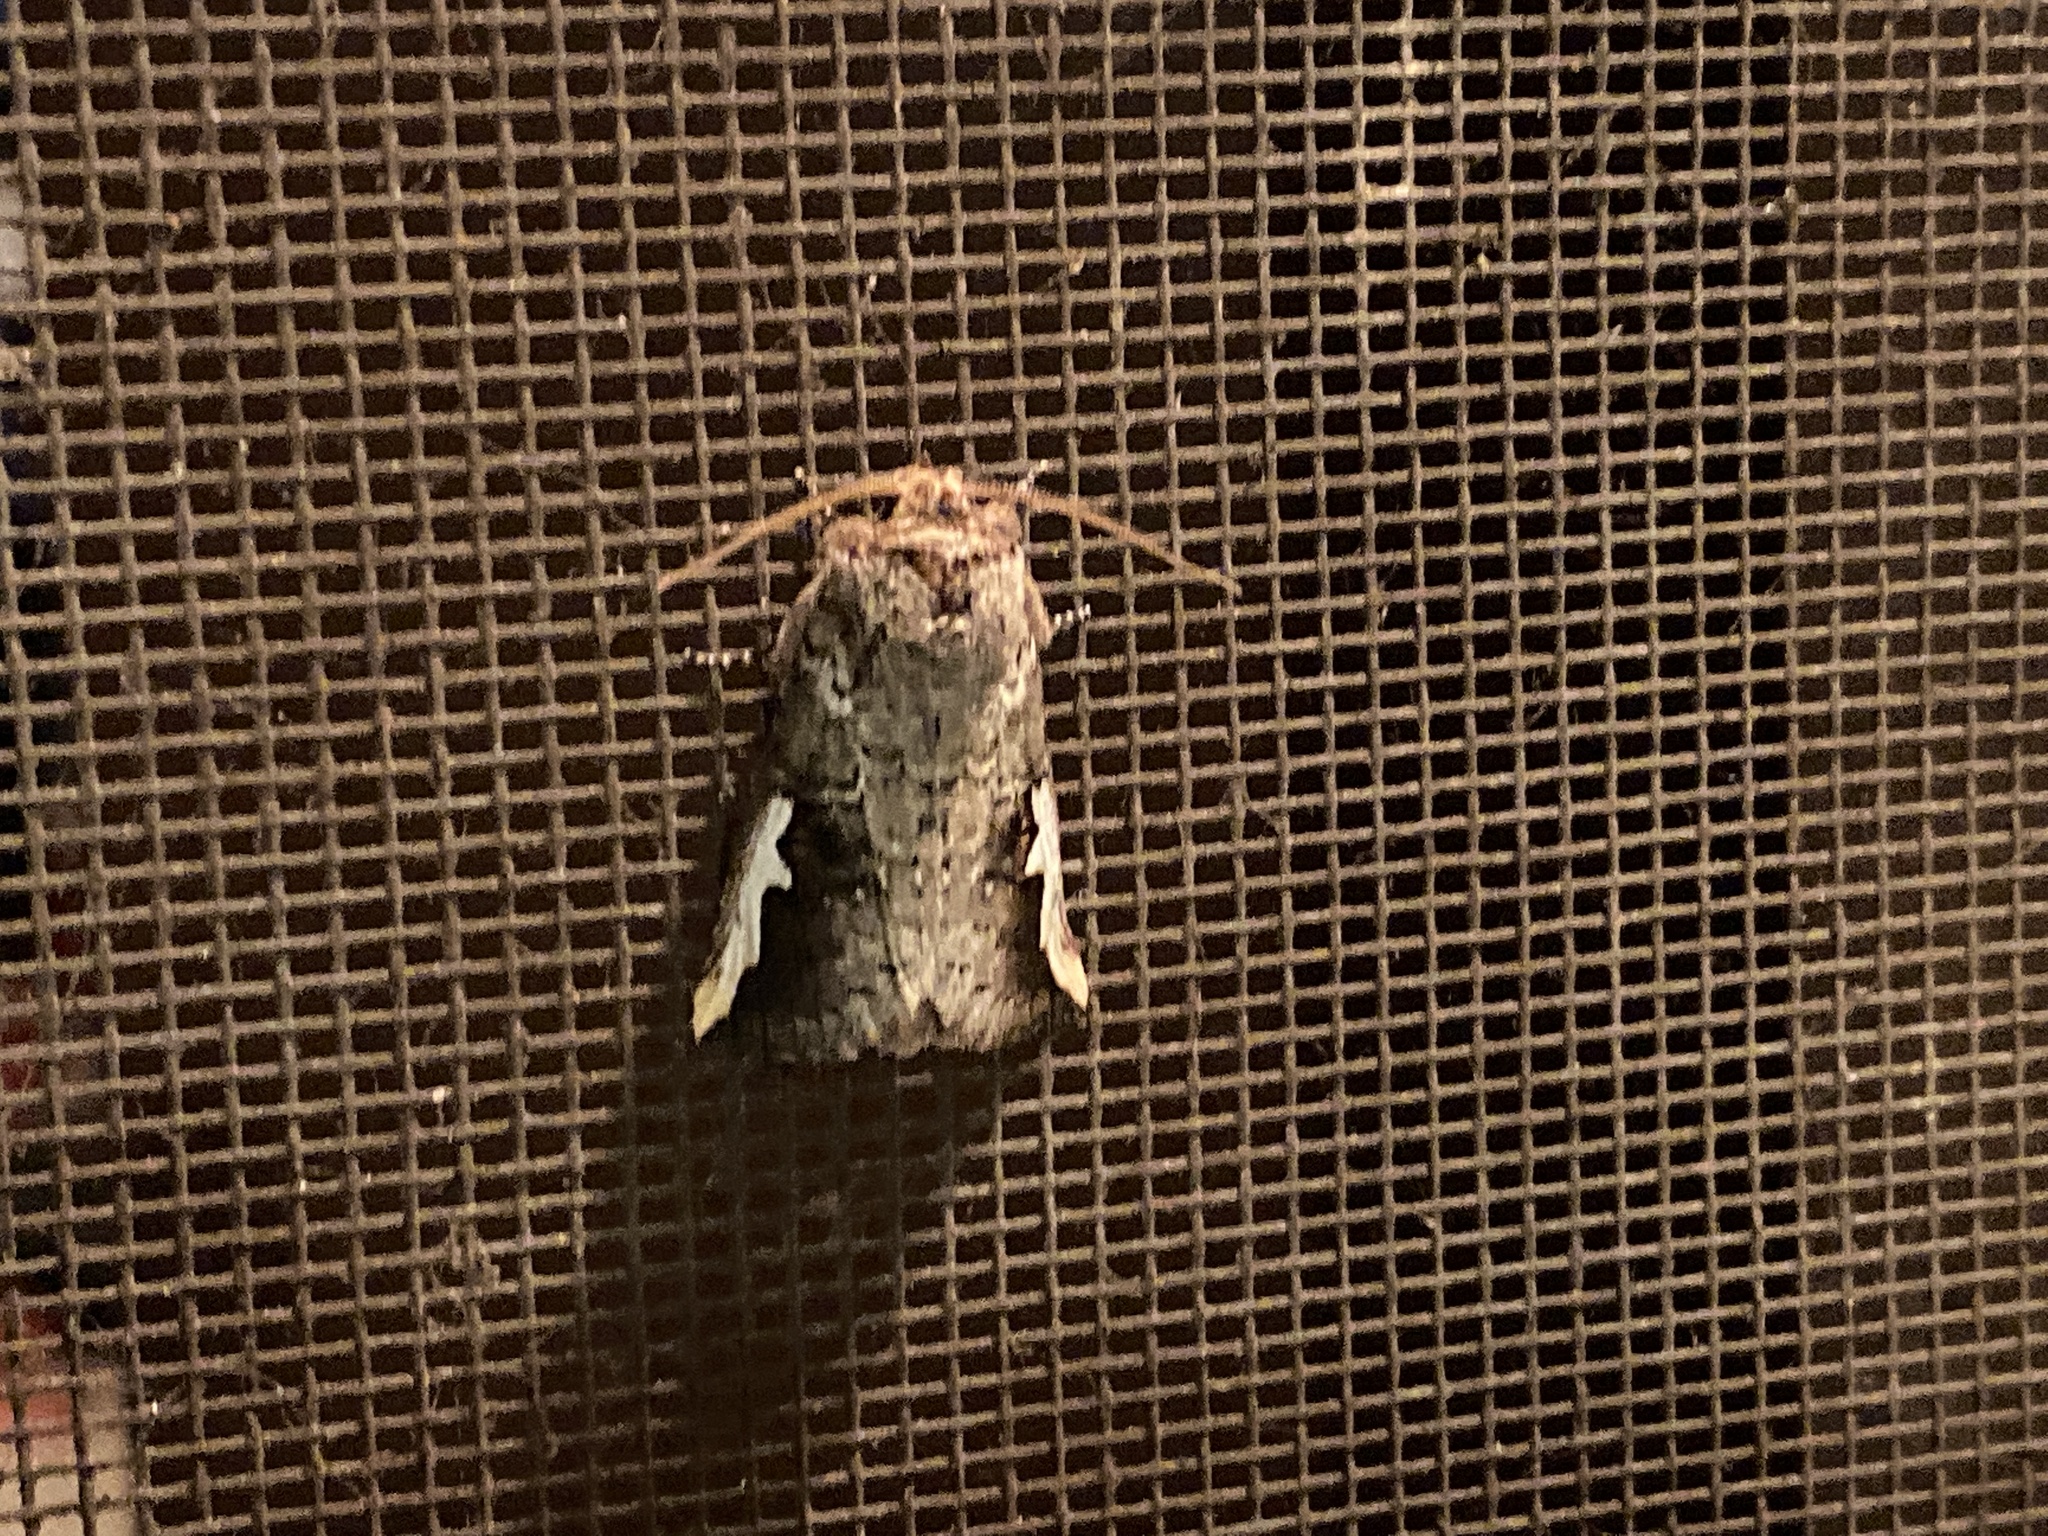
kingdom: Animalia
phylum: Arthropoda
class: Insecta
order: Lepidoptera
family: Notodontidae
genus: Symmerista
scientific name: Symmerista albifrons
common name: White-headed prominent
